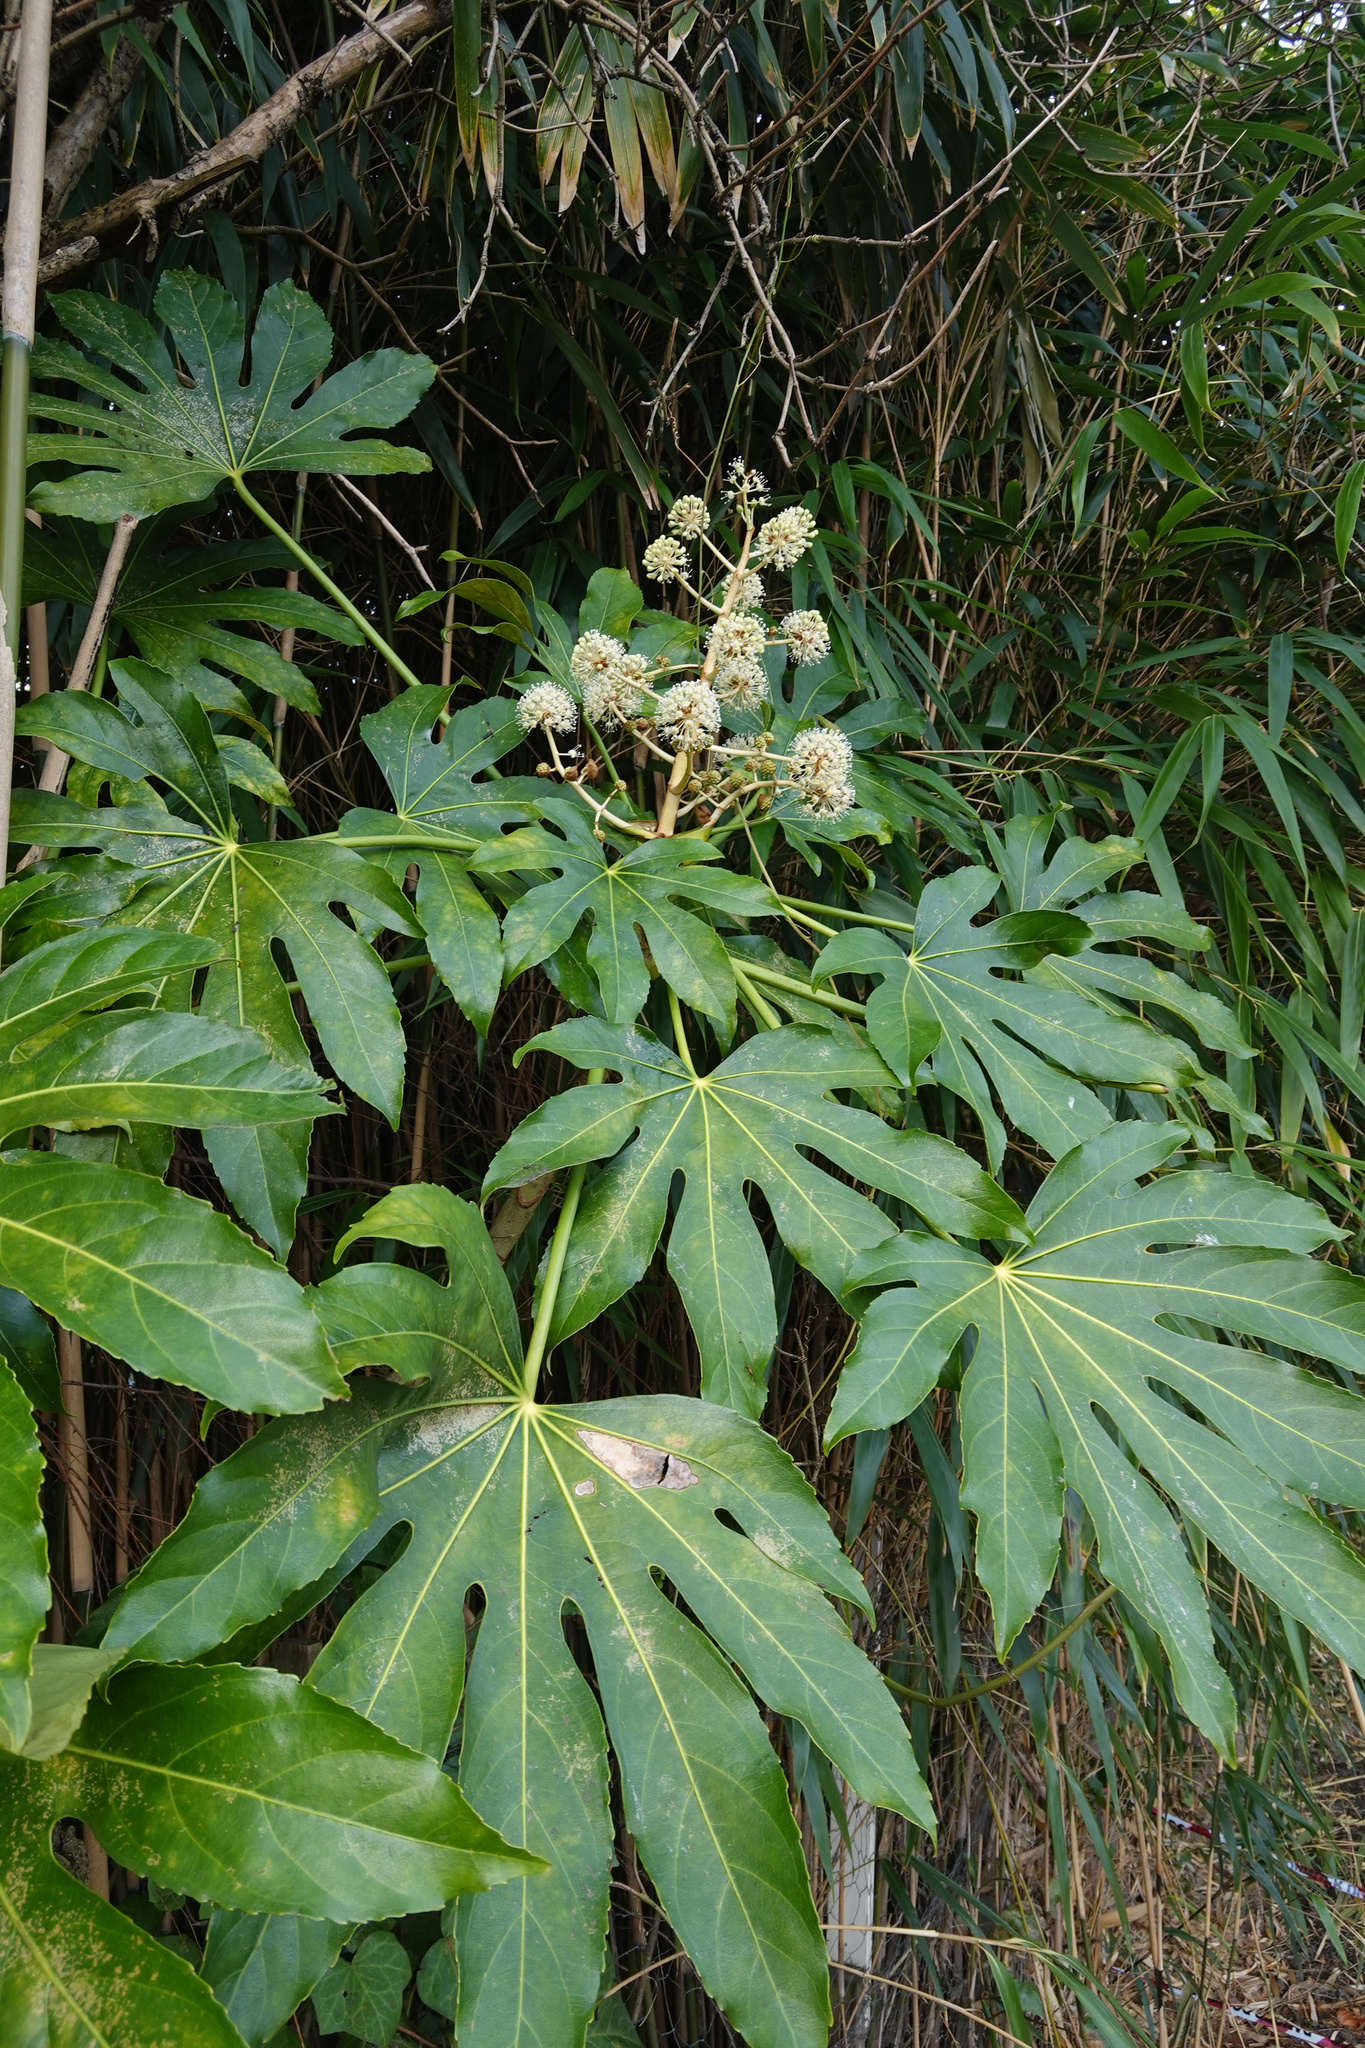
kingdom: Plantae
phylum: Tracheophyta
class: Magnoliopsida
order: Apiales
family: Araliaceae
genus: Fatsia
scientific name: Fatsia japonica
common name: Fatsia
